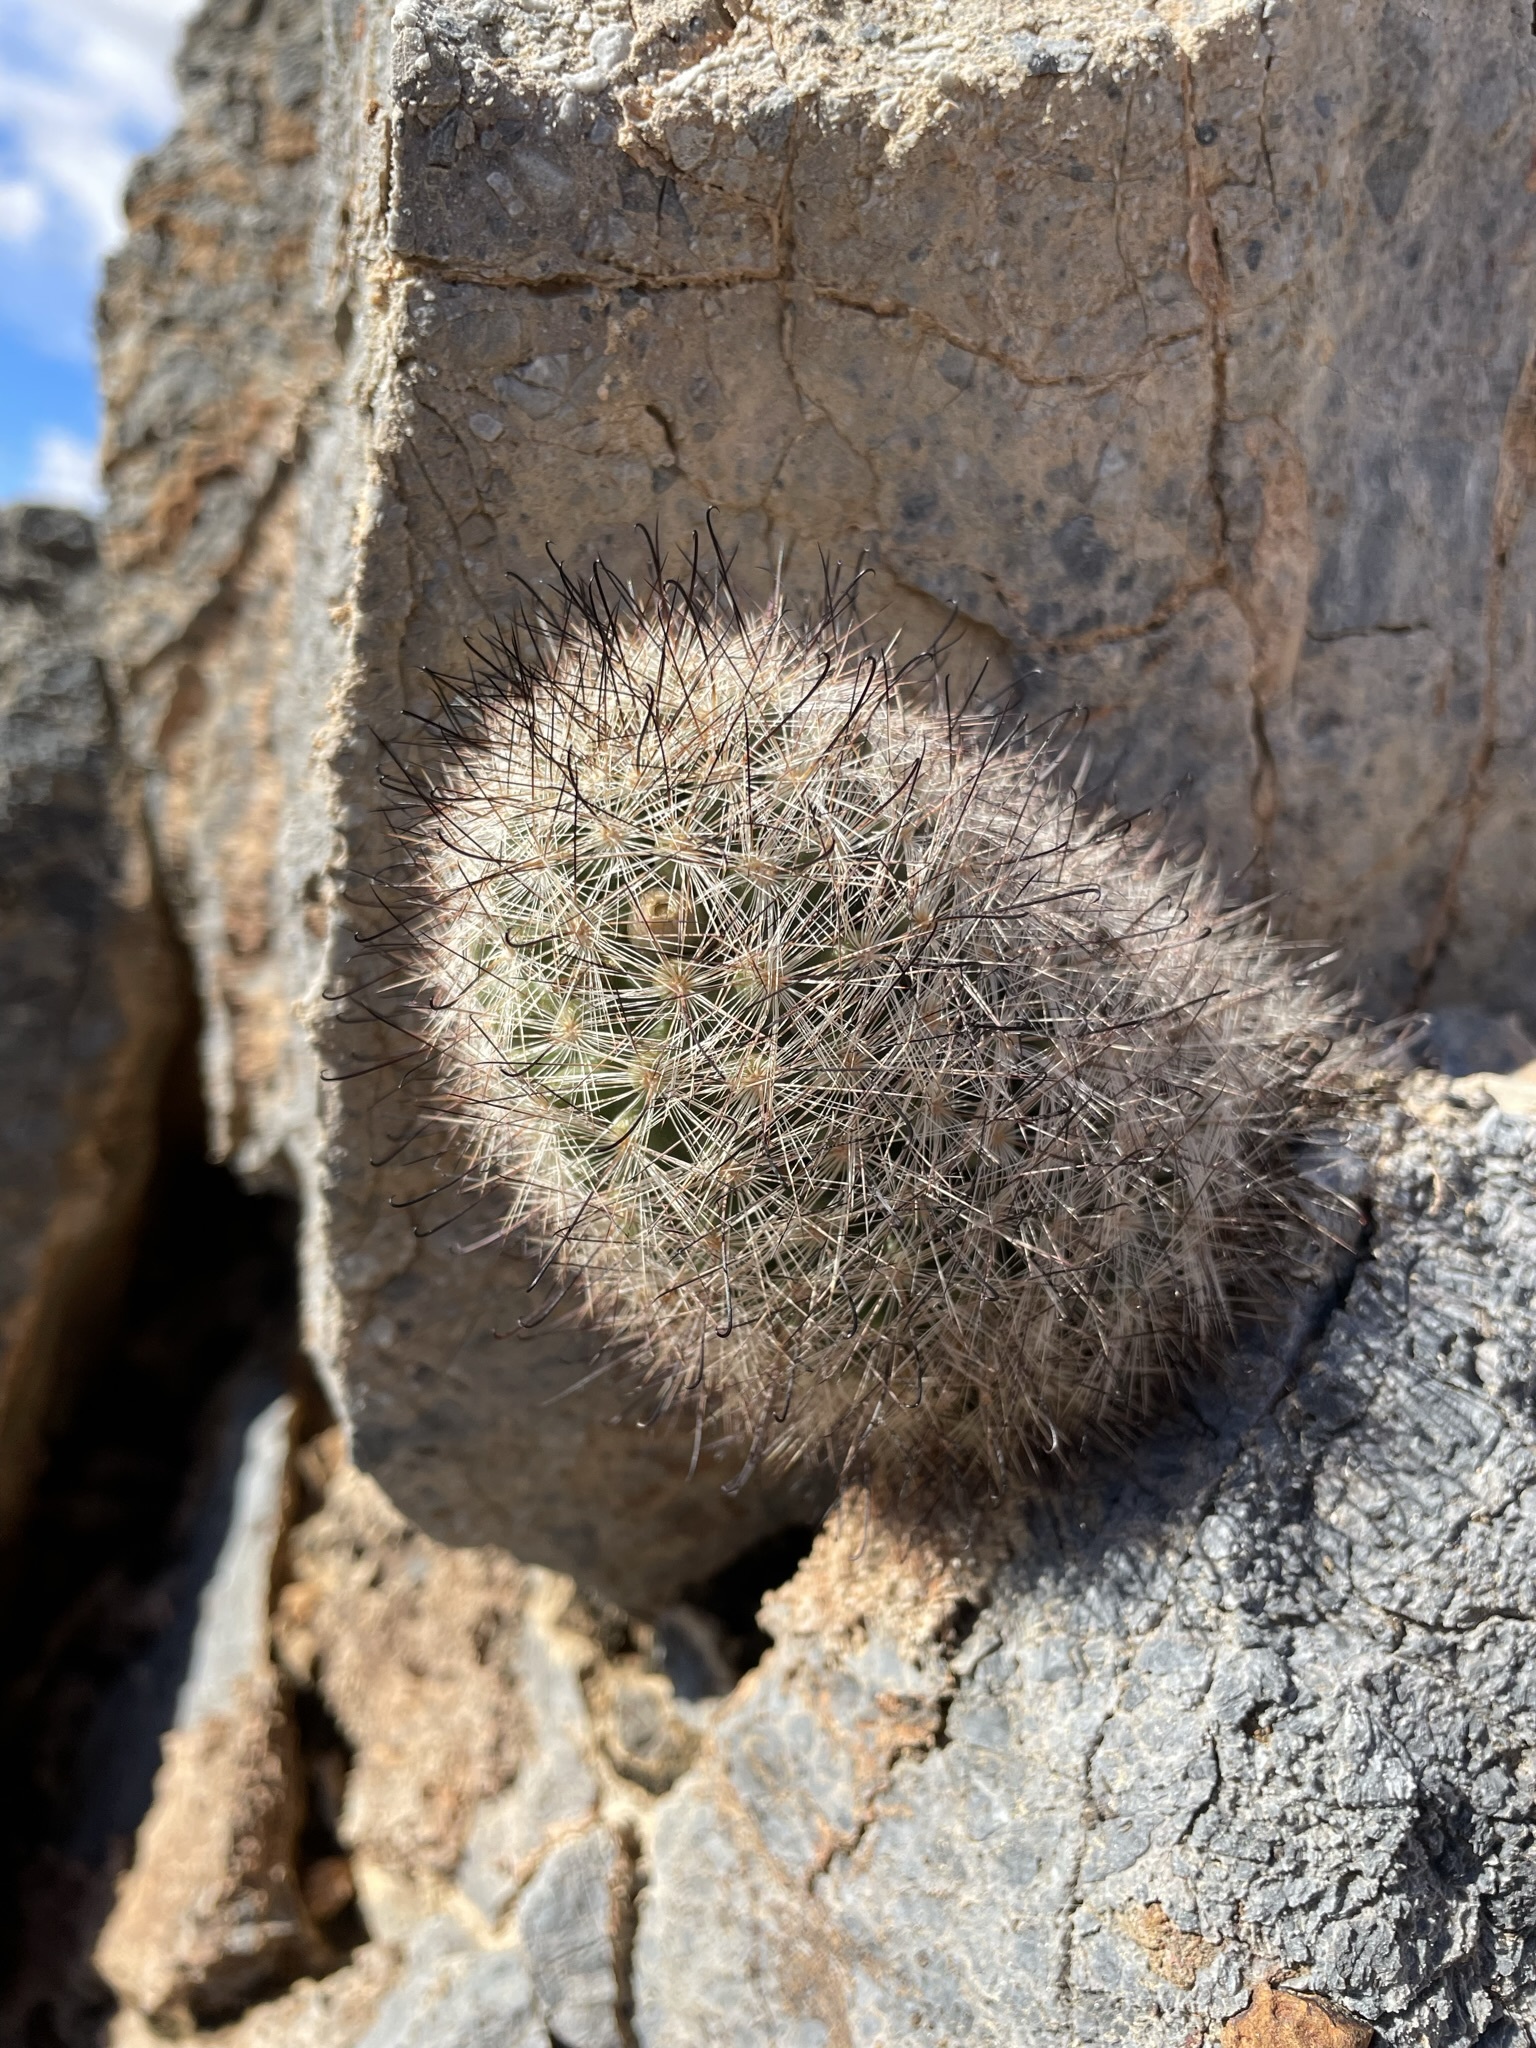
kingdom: Plantae
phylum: Tracheophyta
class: Magnoliopsida
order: Caryophyllales
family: Cactaceae
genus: Cochemiea
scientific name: Cochemiea tetrancistra
